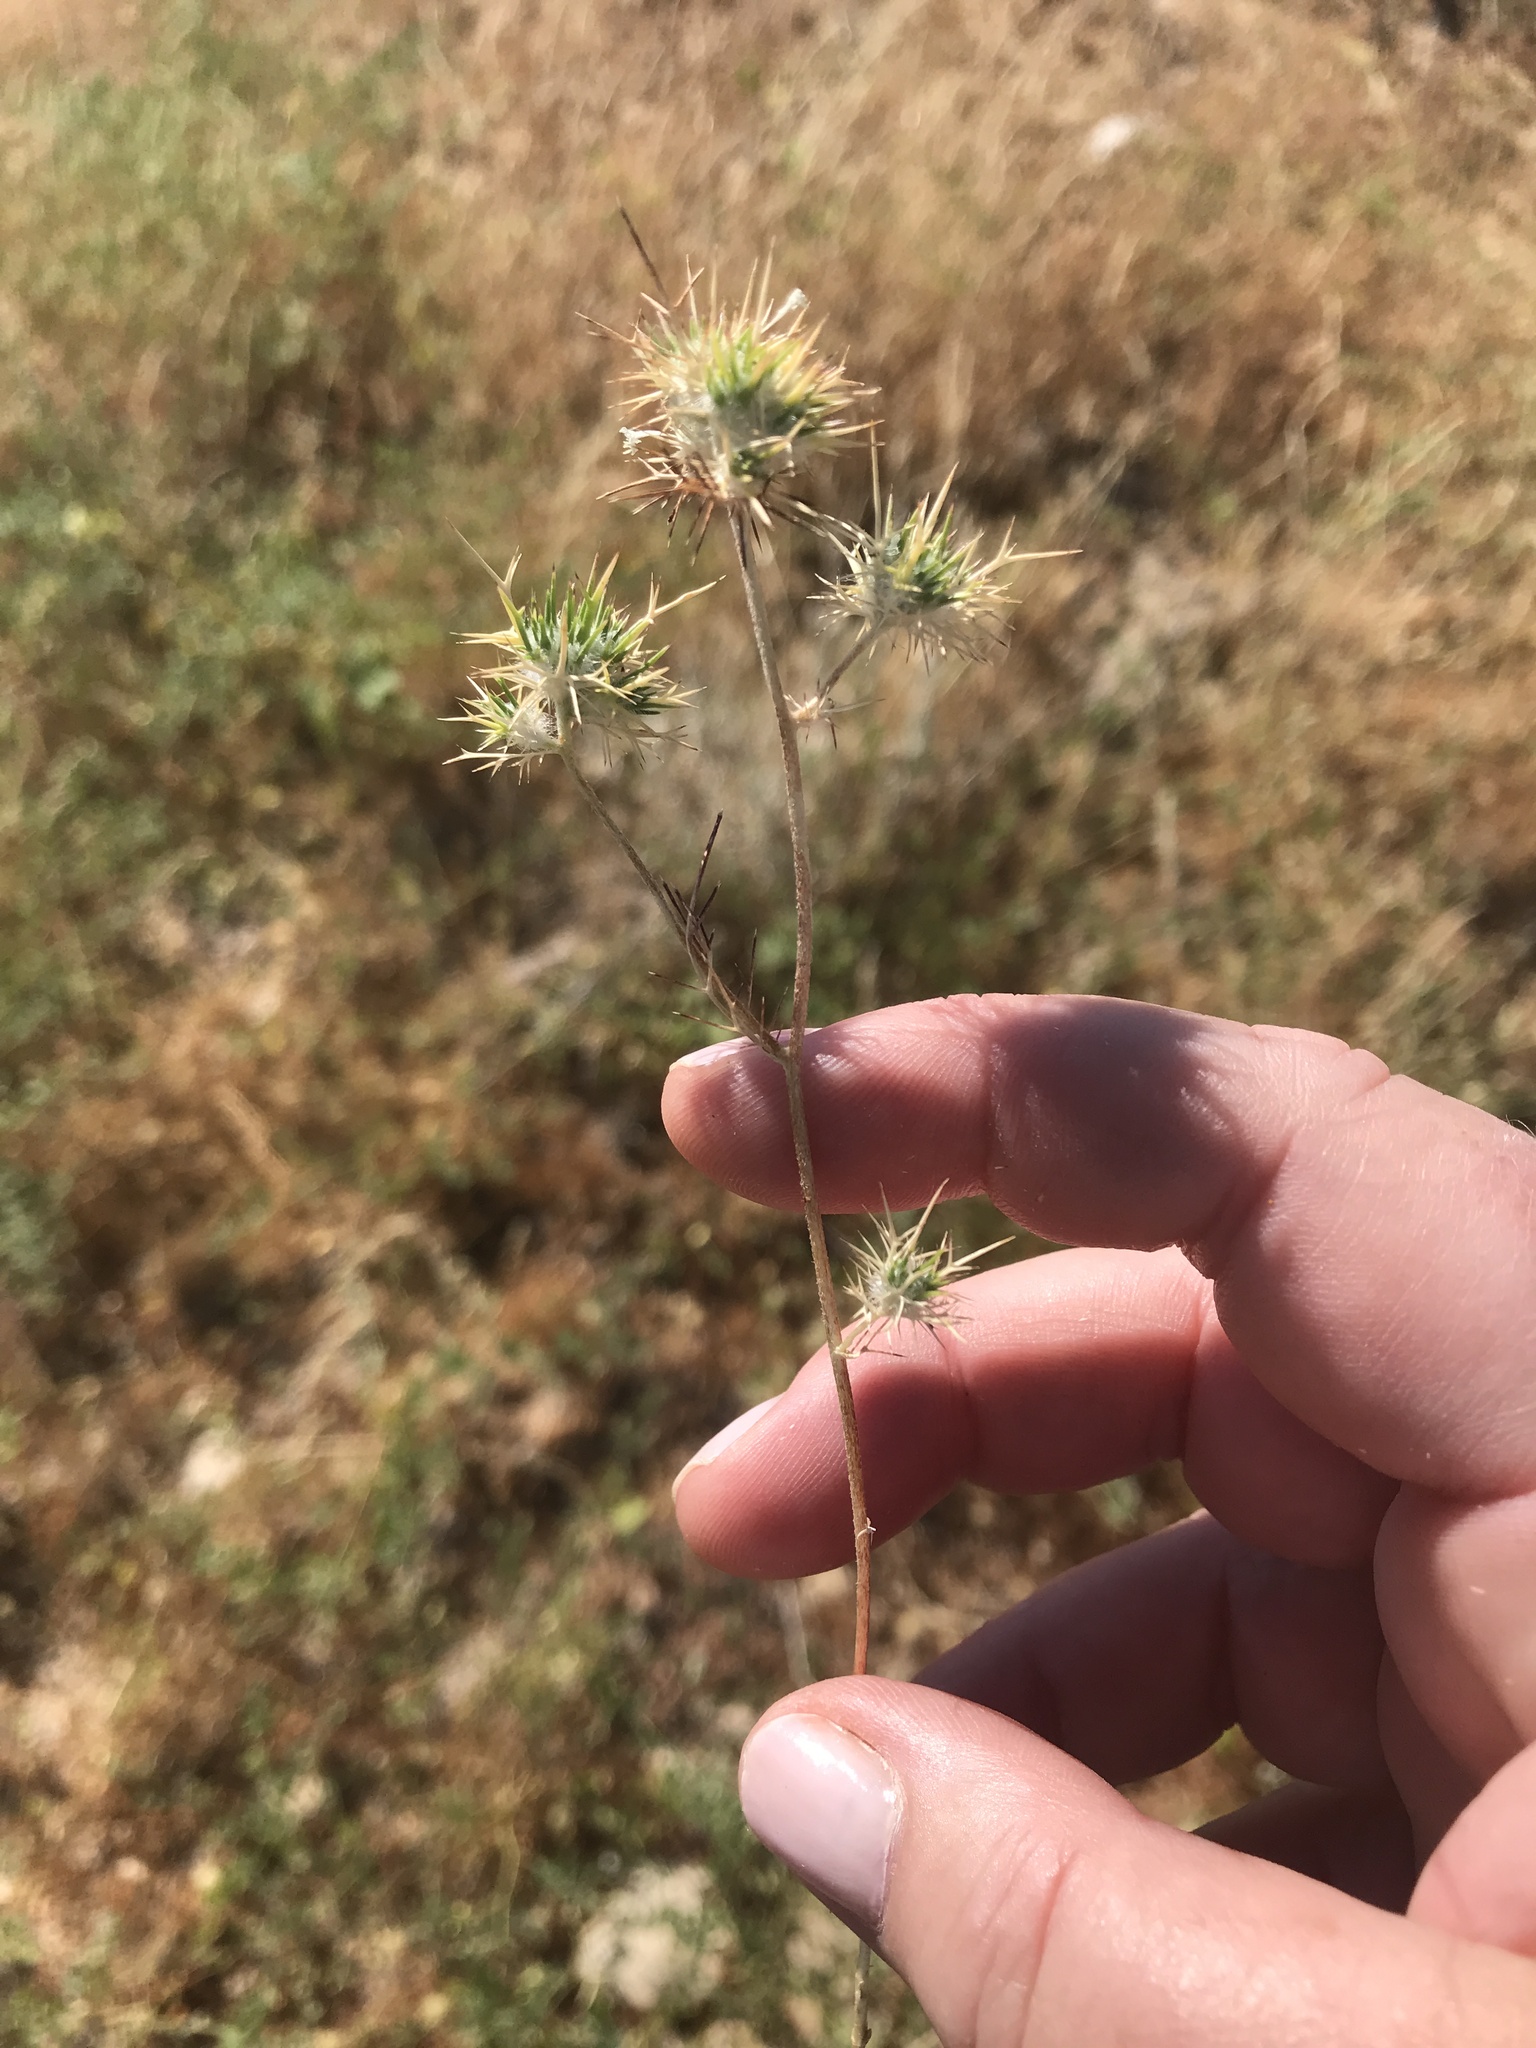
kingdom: Plantae
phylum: Tracheophyta
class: Magnoliopsida
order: Ericales
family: Polemoniaceae
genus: Navarretia
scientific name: Navarretia intertexta
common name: Needle-leaved navarretia
